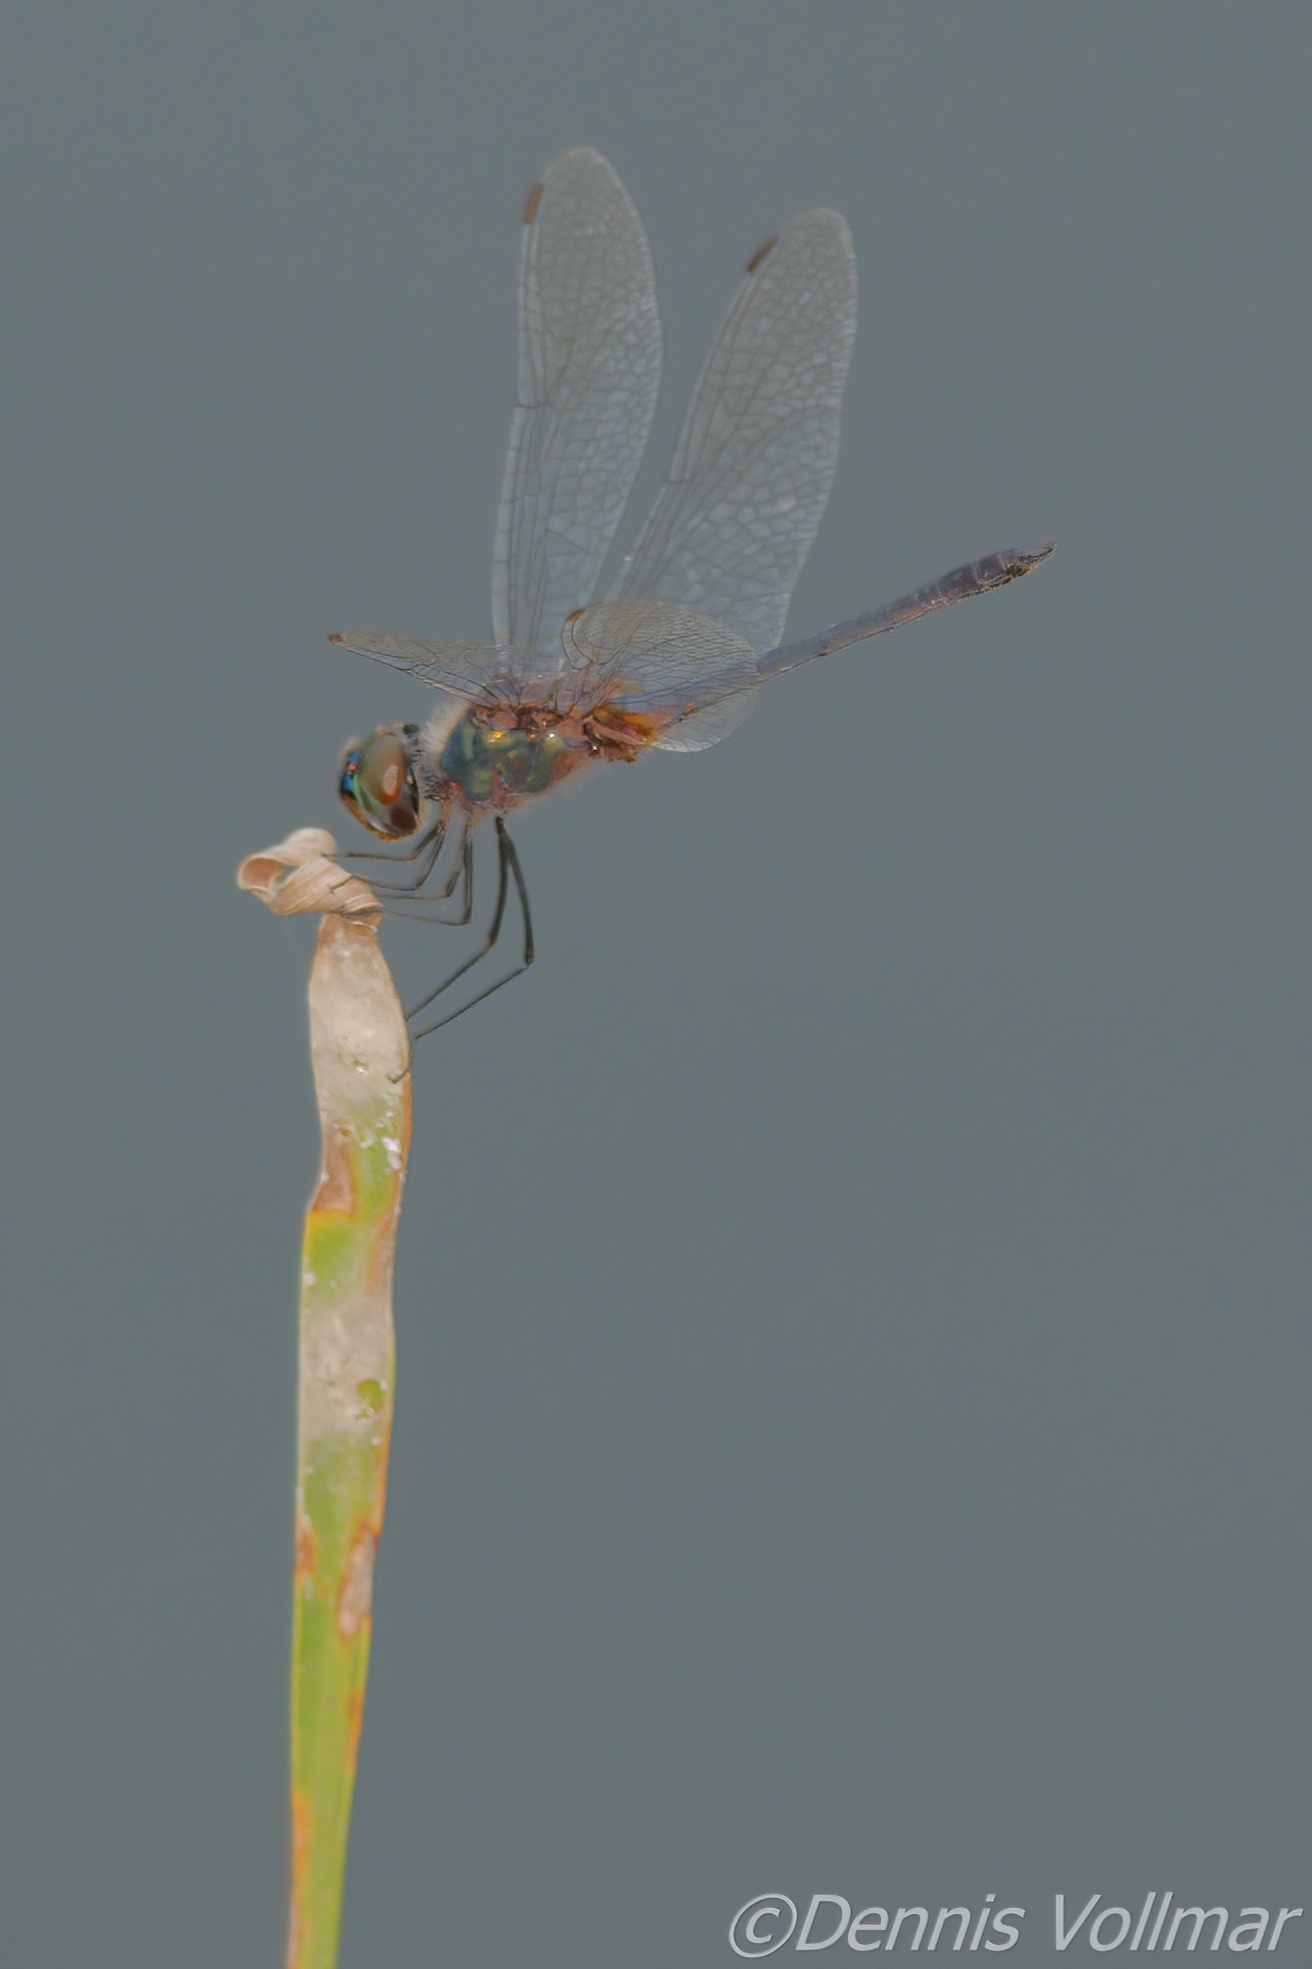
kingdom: Animalia
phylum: Arthropoda
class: Insecta
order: Odonata
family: Libellulidae
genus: Idiataphe
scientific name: Idiataphe cubensis
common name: Metallic pennant
